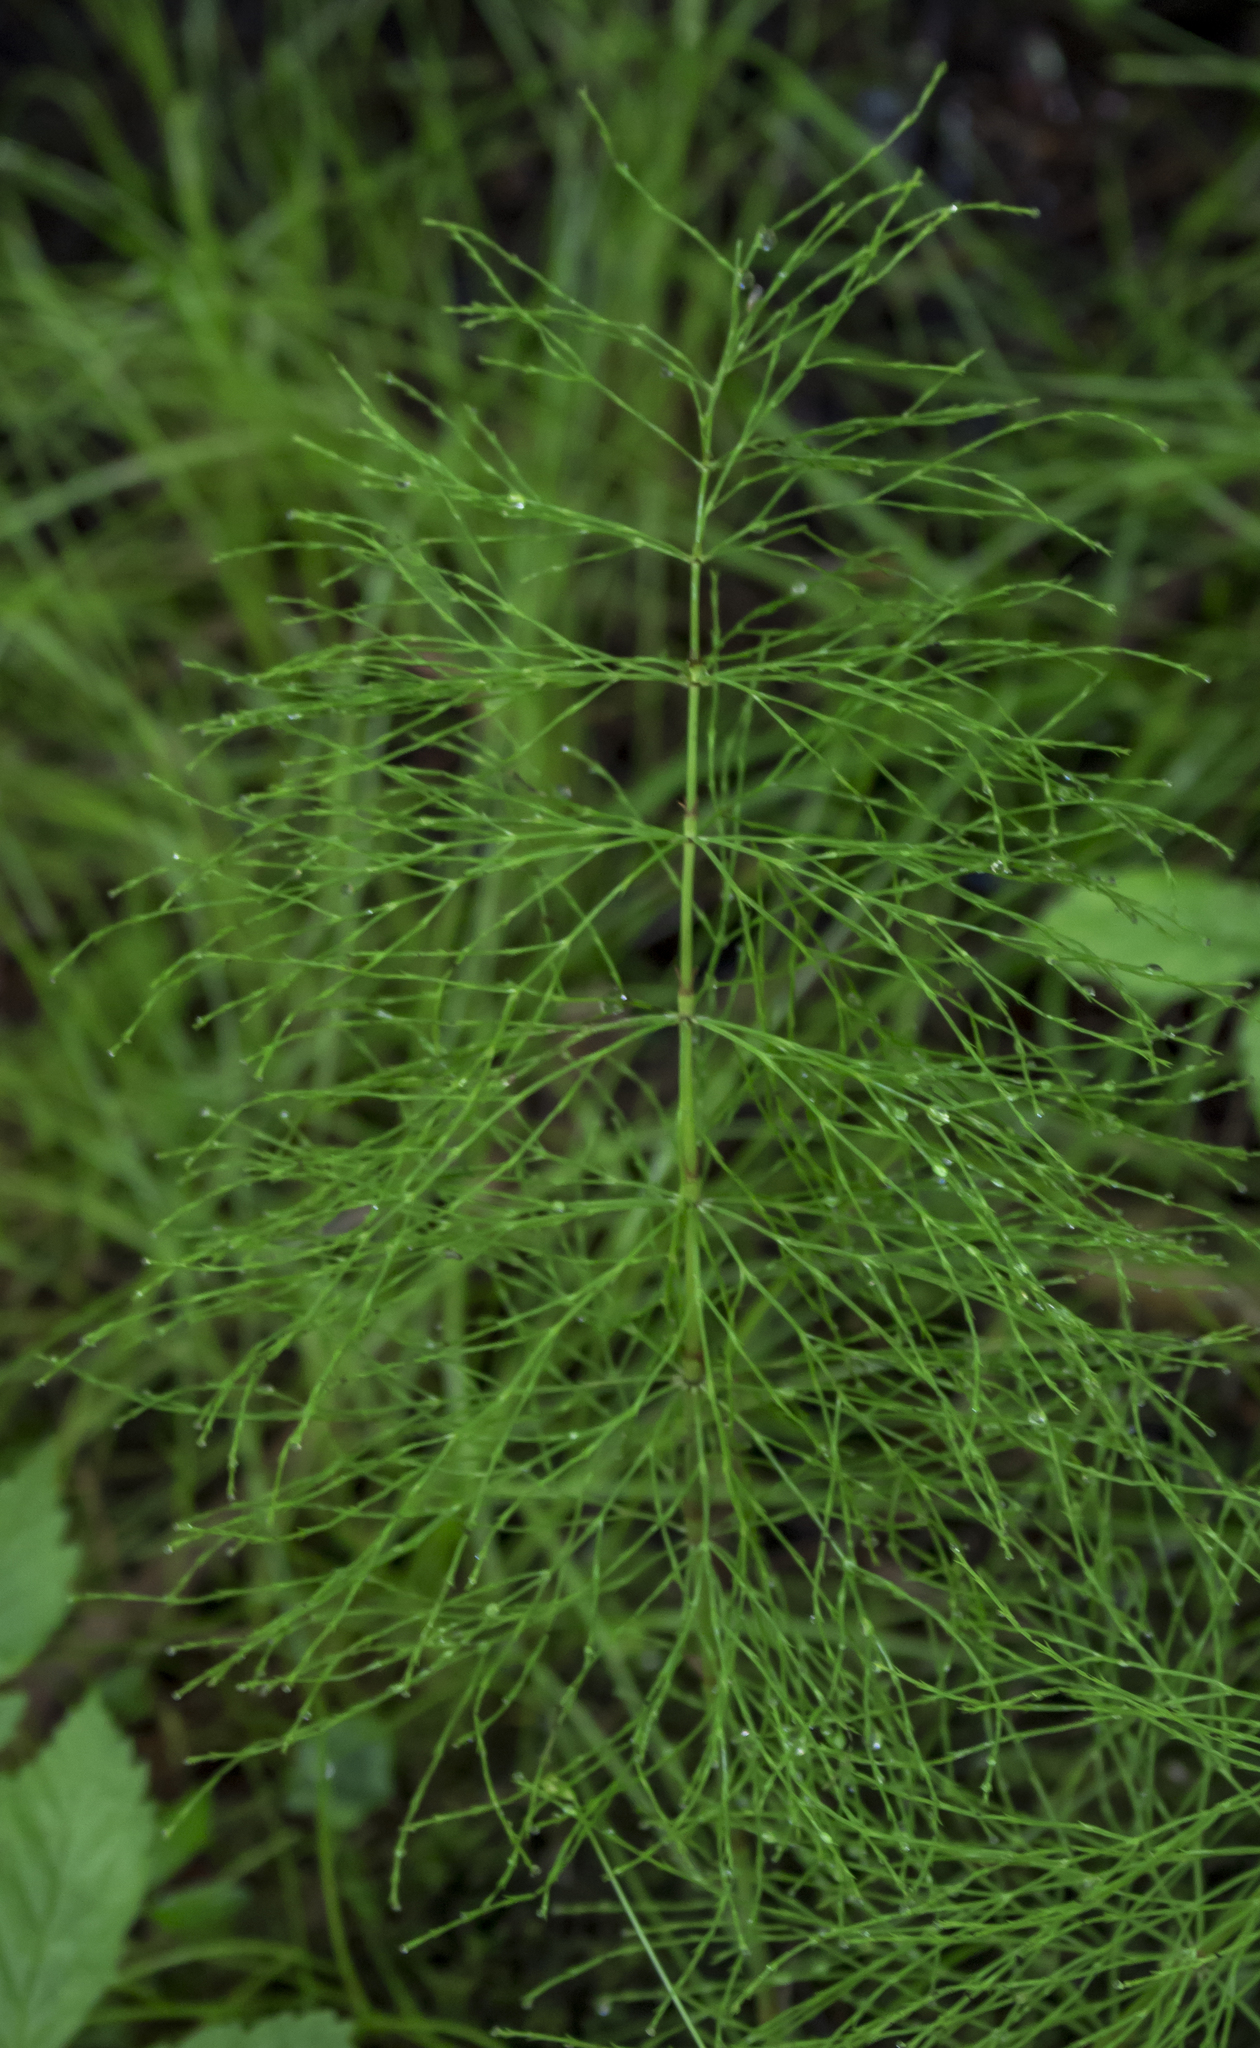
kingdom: Plantae
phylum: Tracheophyta
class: Polypodiopsida
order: Equisetales
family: Equisetaceae
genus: Equisetum
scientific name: Equisetum sylvaticum
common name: Wood horsetail
